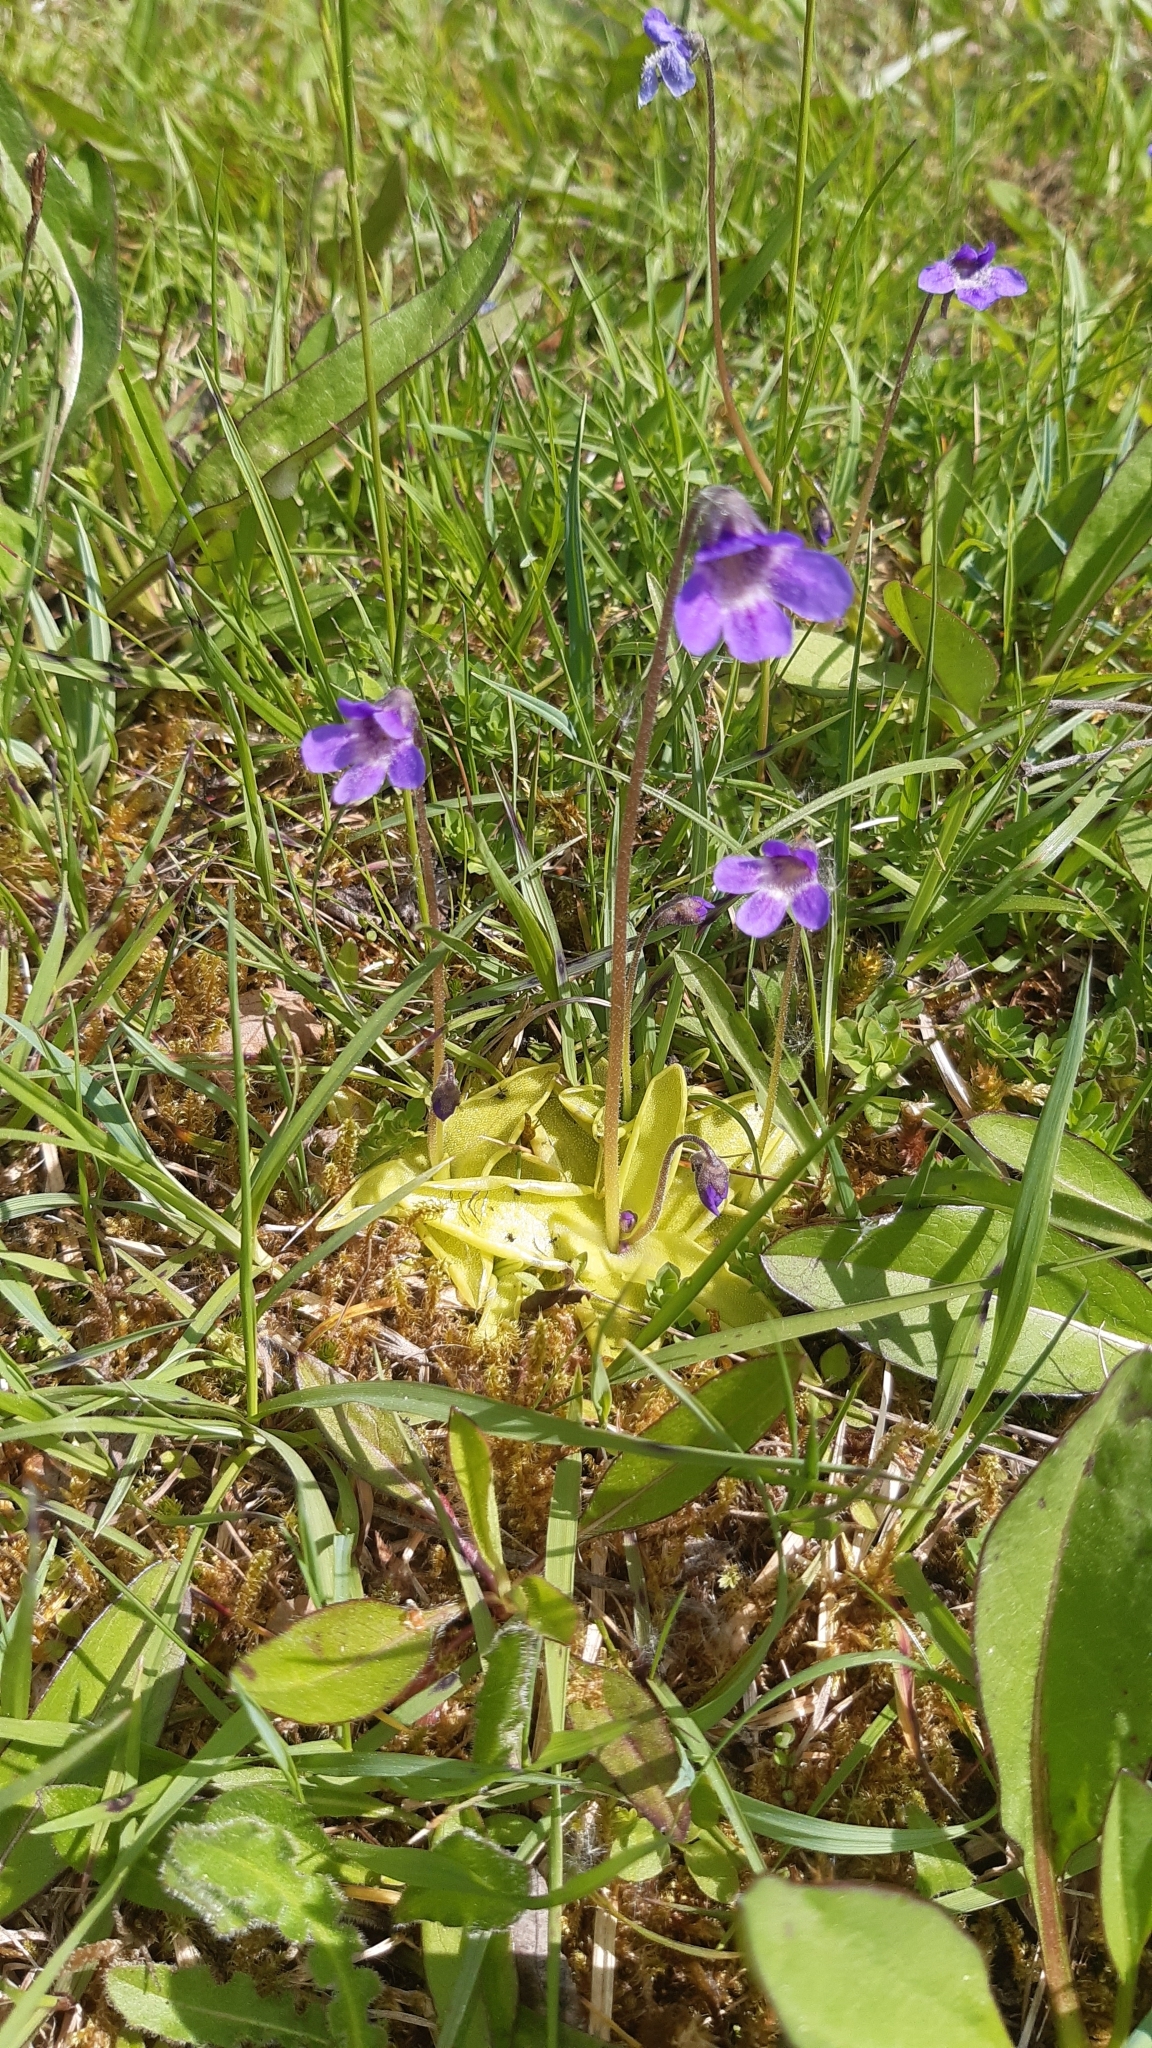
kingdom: Plantae
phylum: Tracheophyta
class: Magnoliopsida
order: Lamiales
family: Lentibulariaceae
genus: Pinguicula
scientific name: Pinguicula vulgaris
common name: Common butterwort
